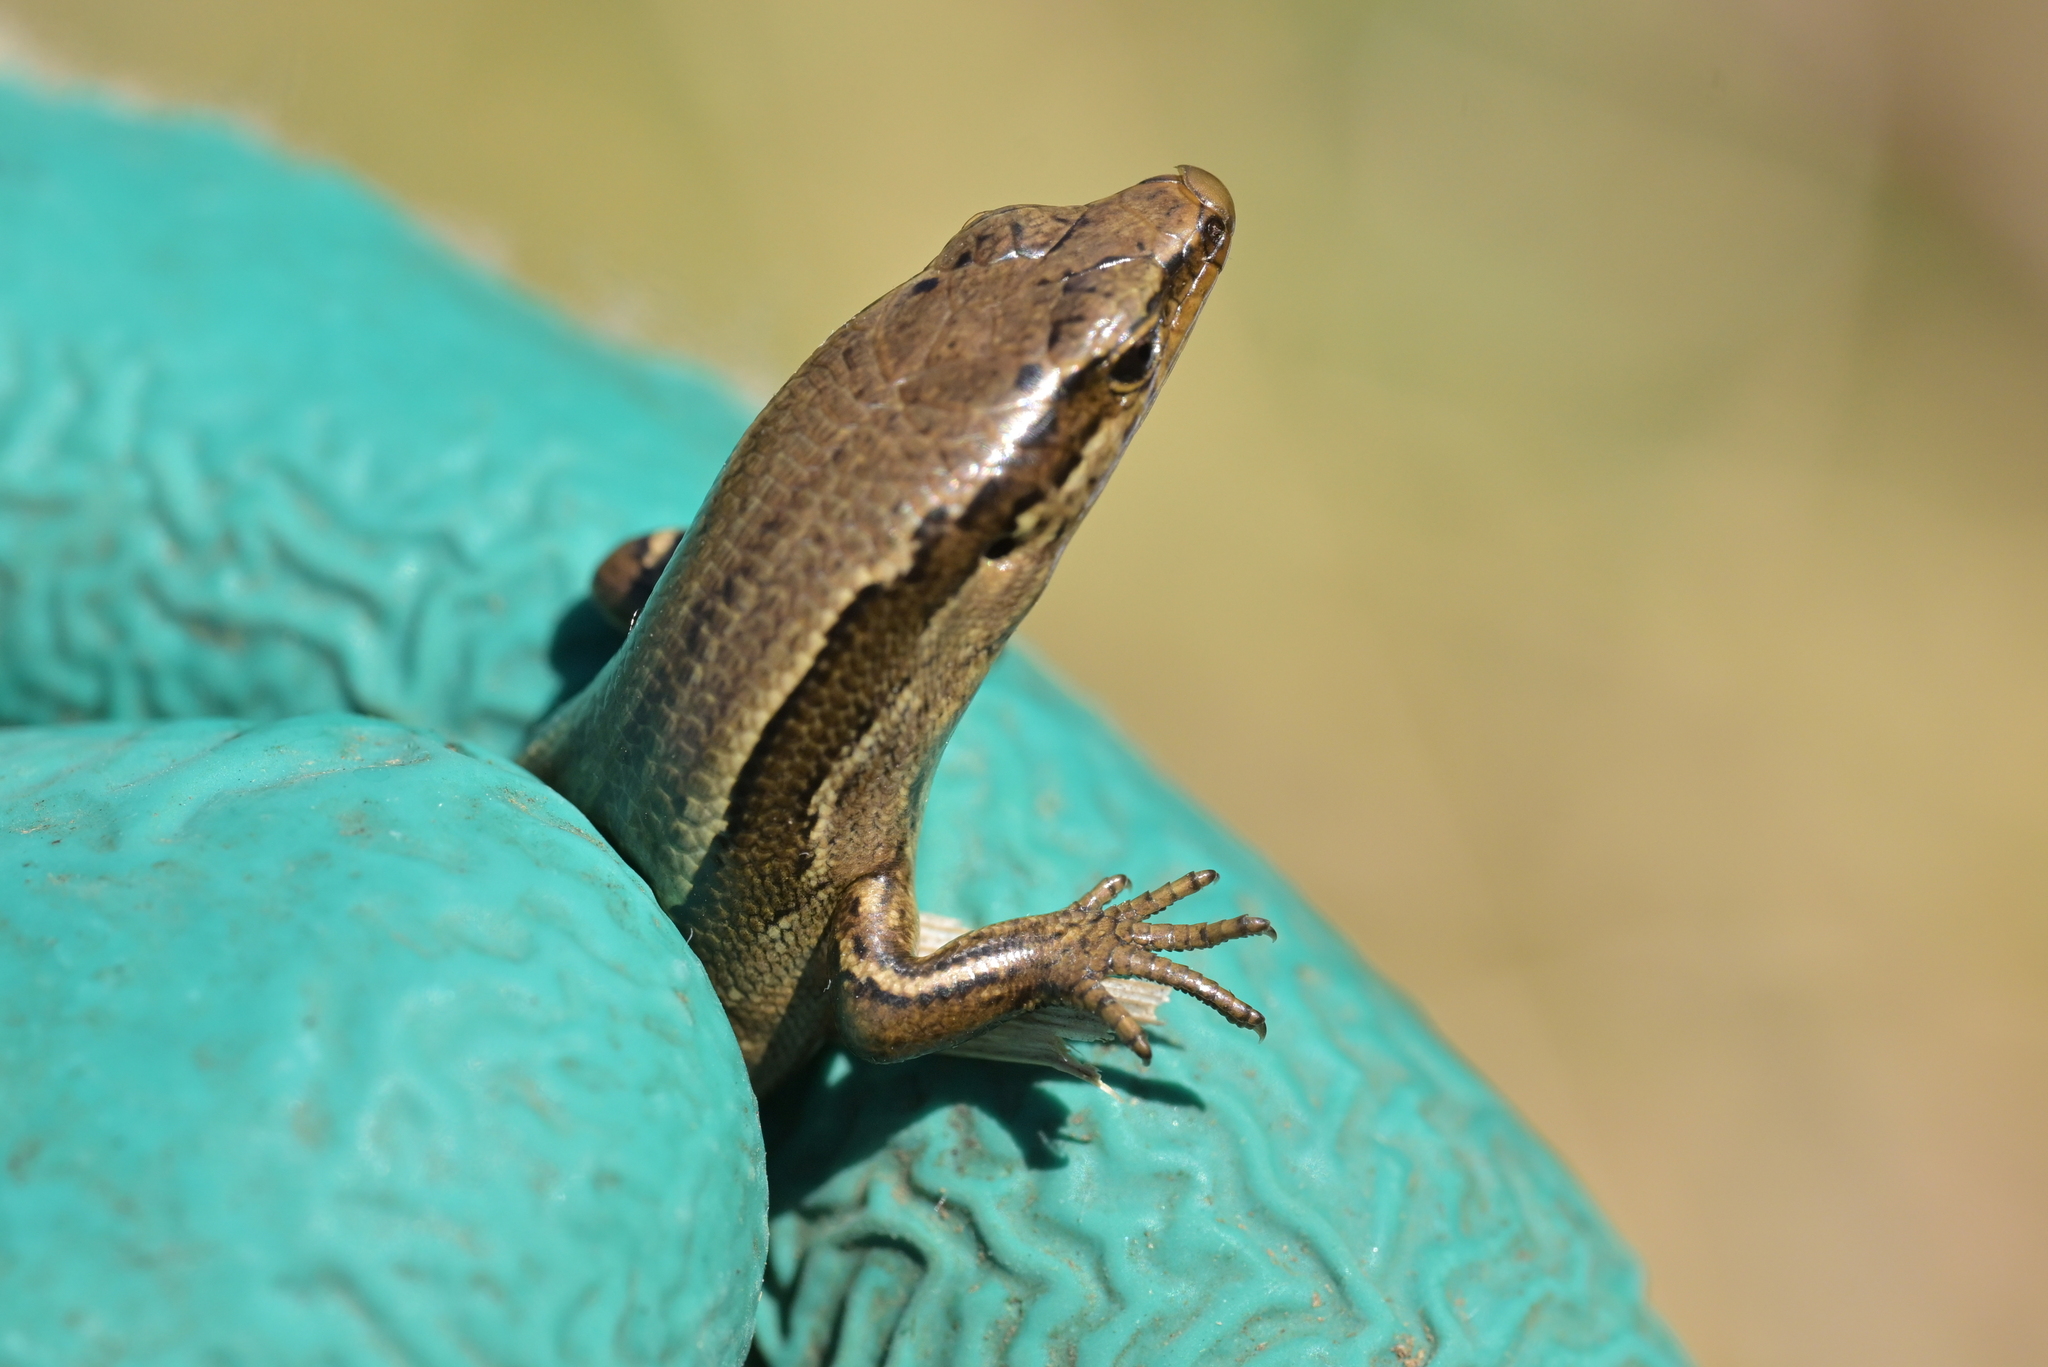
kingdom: Animalia
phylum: Chordata
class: Squamata
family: Scincidae
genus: Oligosoma
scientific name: Oligosoma zelandicum
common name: Brown skink
